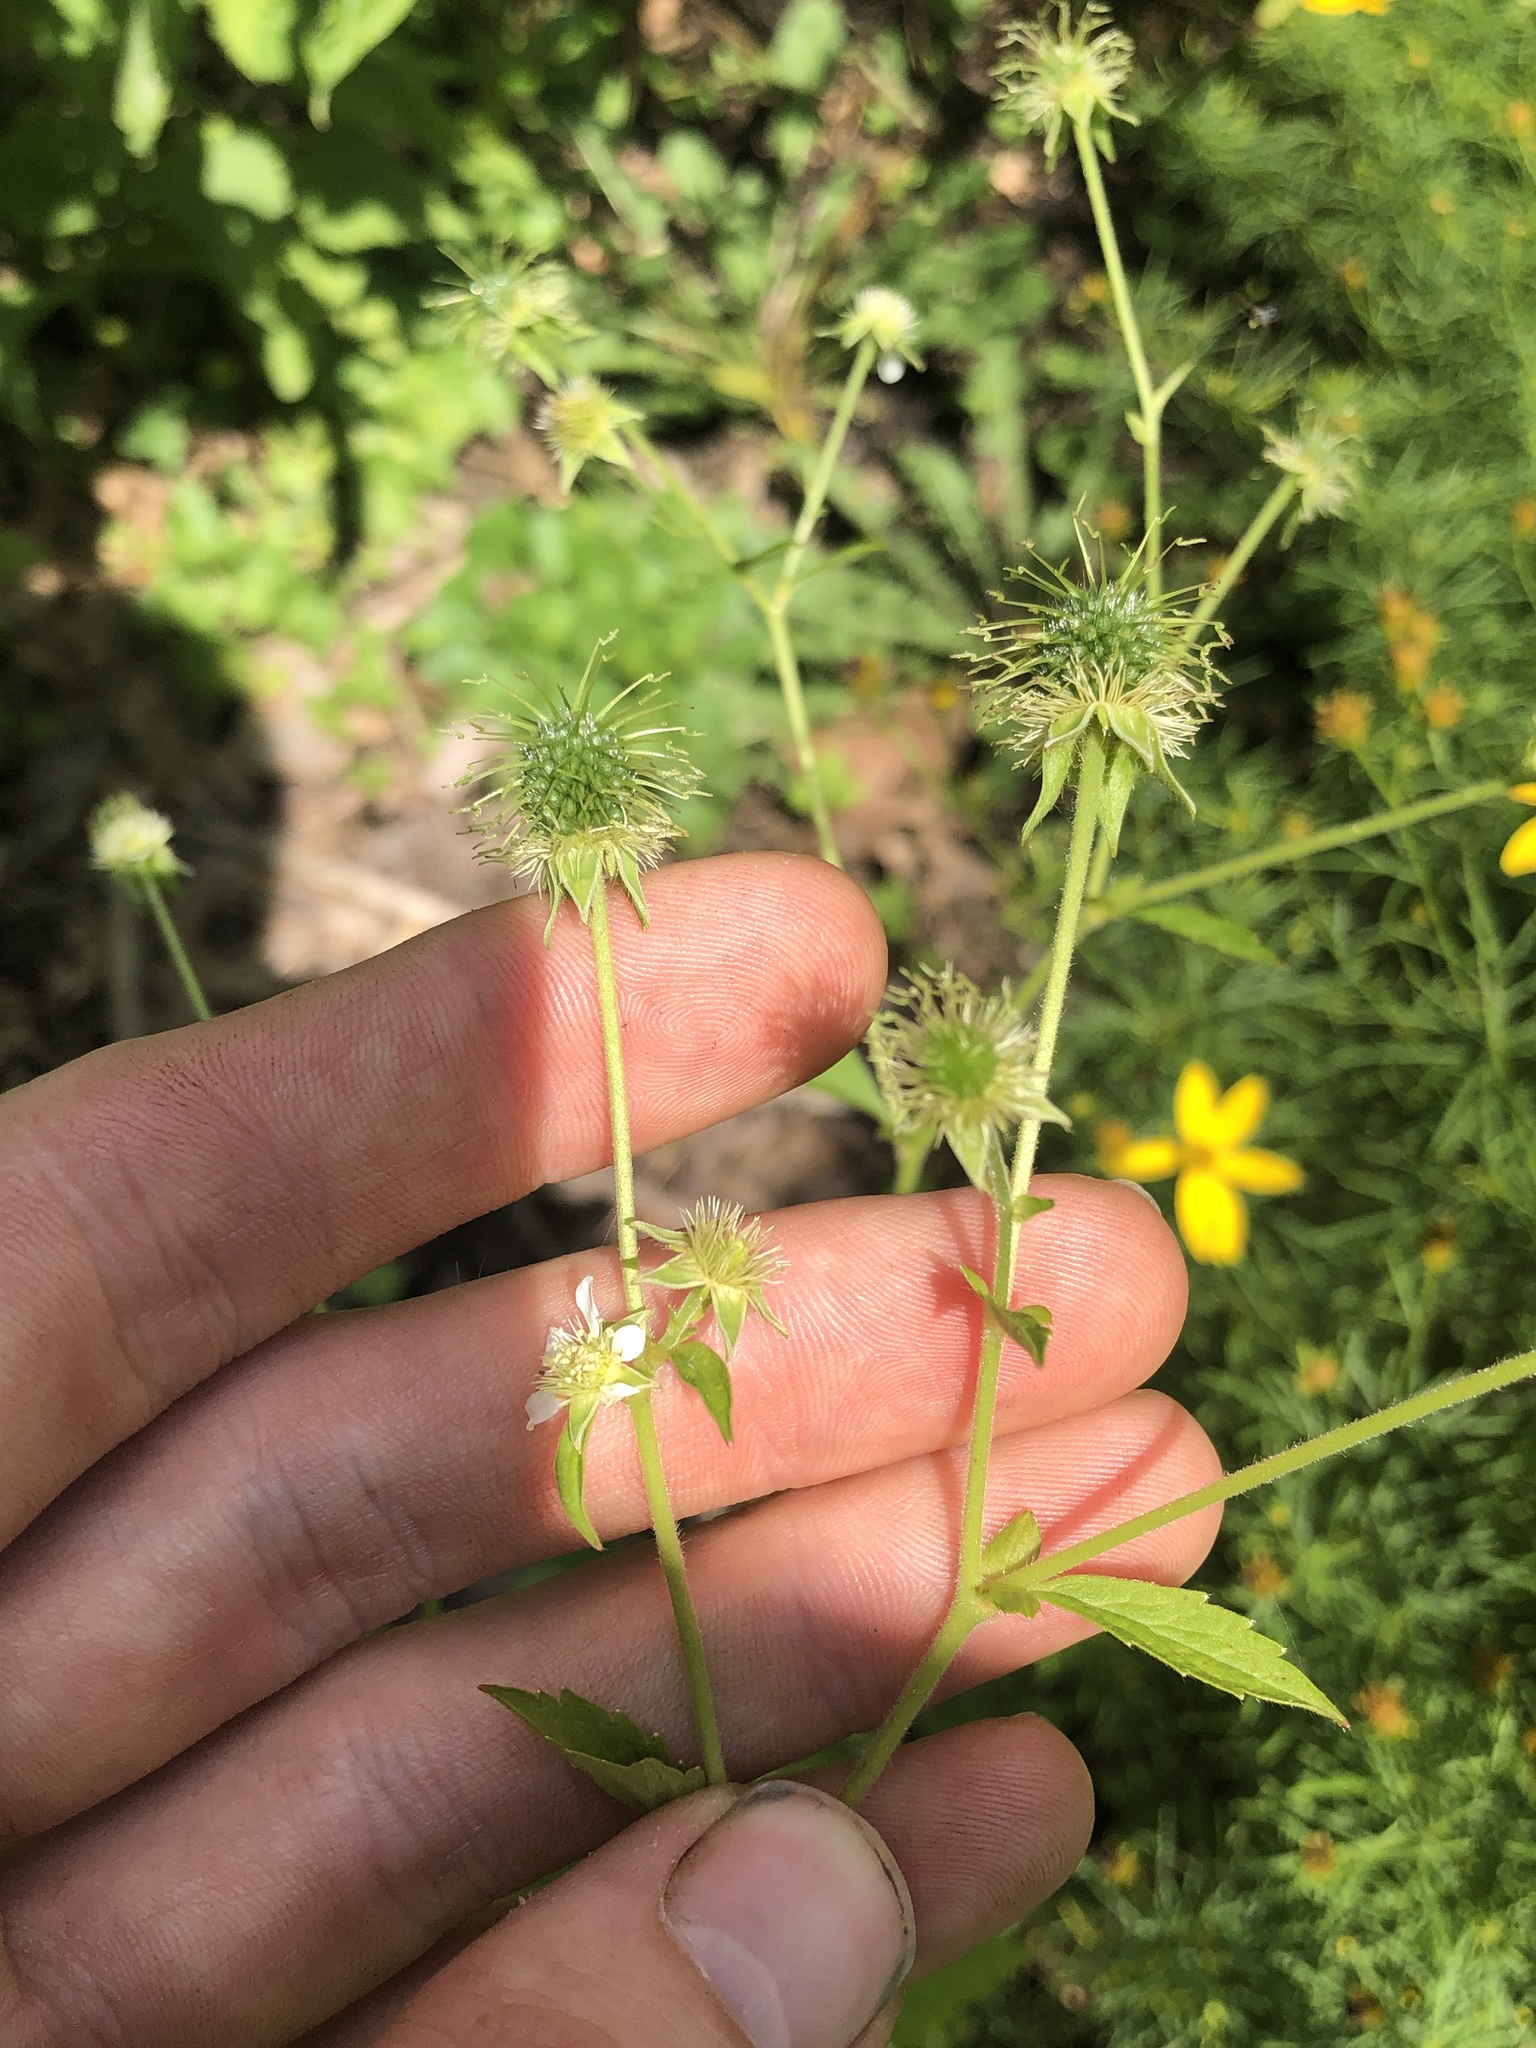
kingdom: Plantae
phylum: Tracheophyta
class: Magnoliopsida
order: Rosales
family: Rosaceae
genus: Geum
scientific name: Geum canadense
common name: White avens
